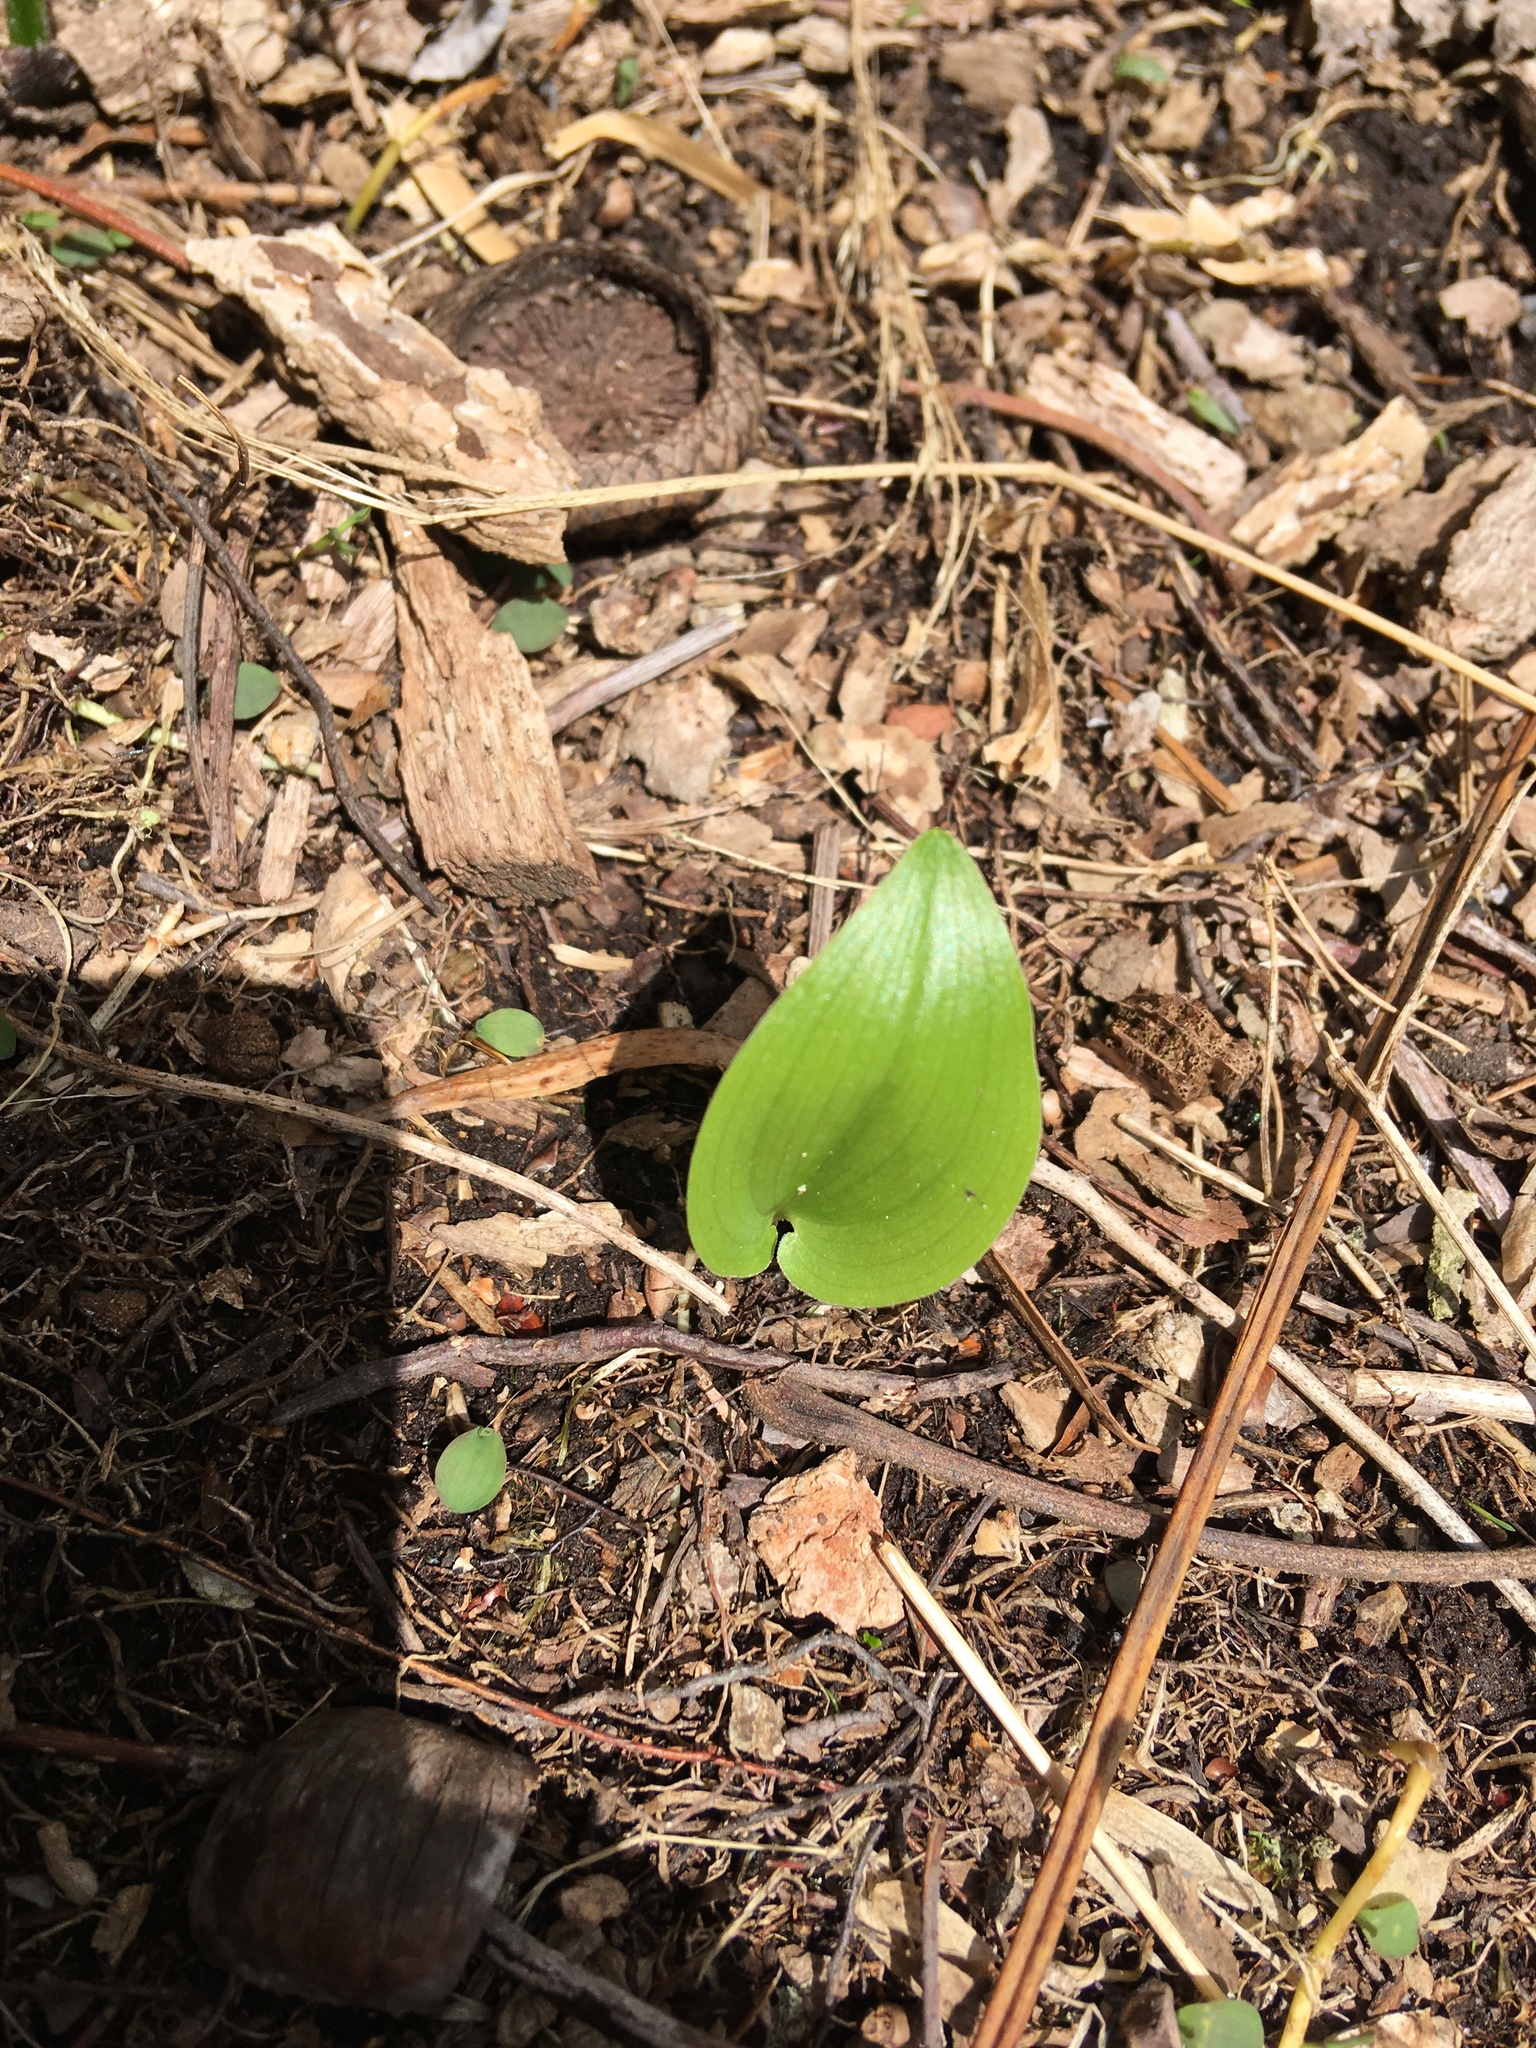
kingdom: Plantae
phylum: Tracheophyta
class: Liliopsida
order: Asparagales
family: Asparagaceae
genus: Maianthemum
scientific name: Maianthemum canadense
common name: False lily-of-the-valley
